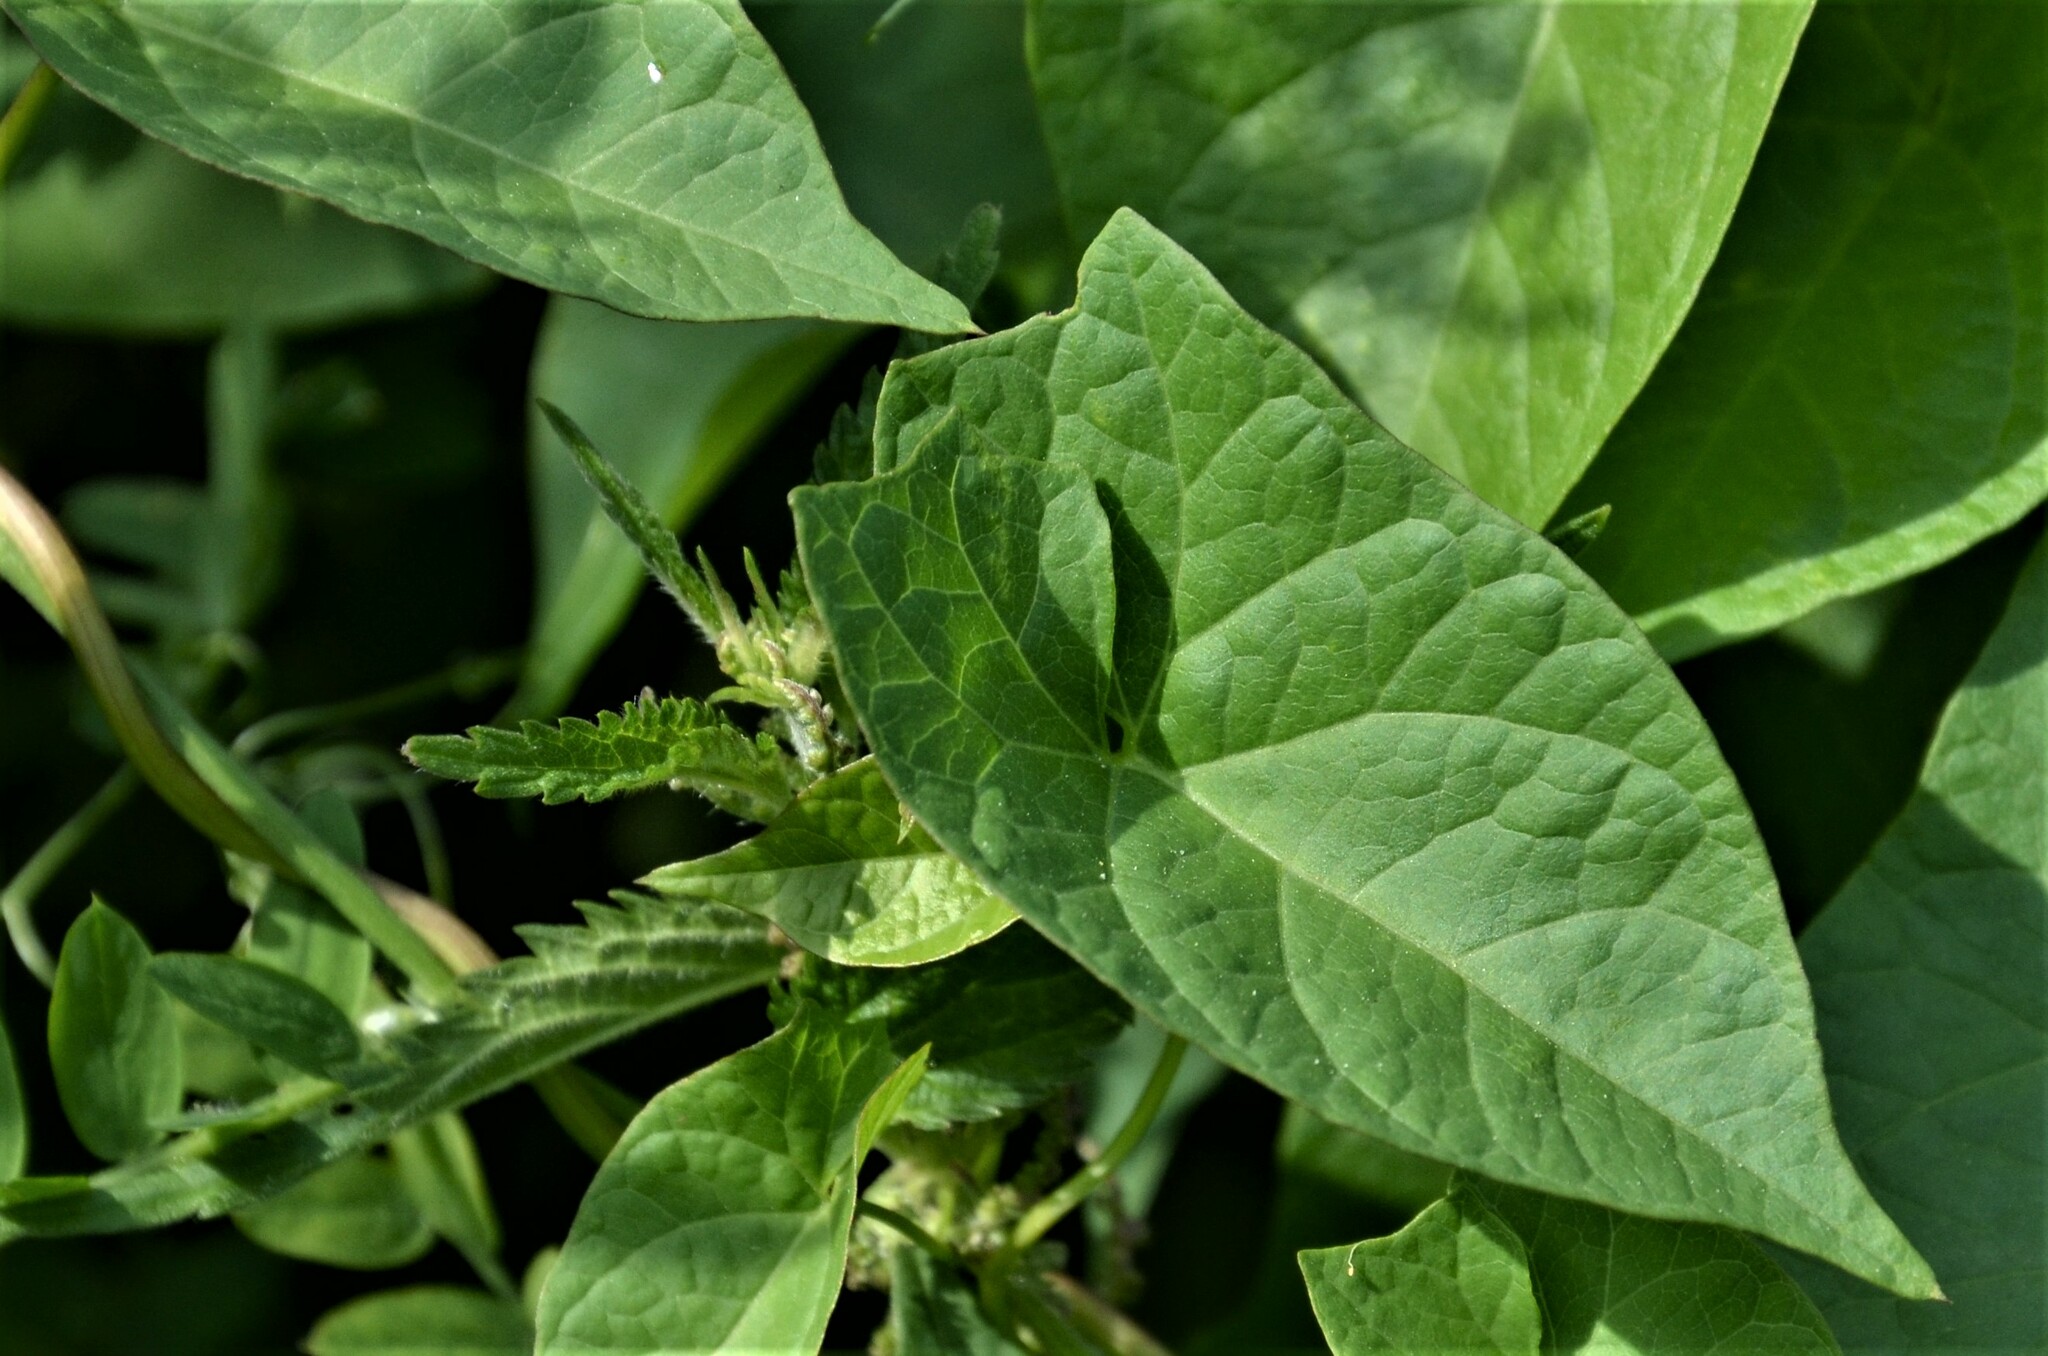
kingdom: Plantae
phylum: Tracheophyta
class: Magnoliopsida
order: Solanales
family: Convolvulaceae
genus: Calystegia
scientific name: Calystegia sepium
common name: Hedge bindweed
